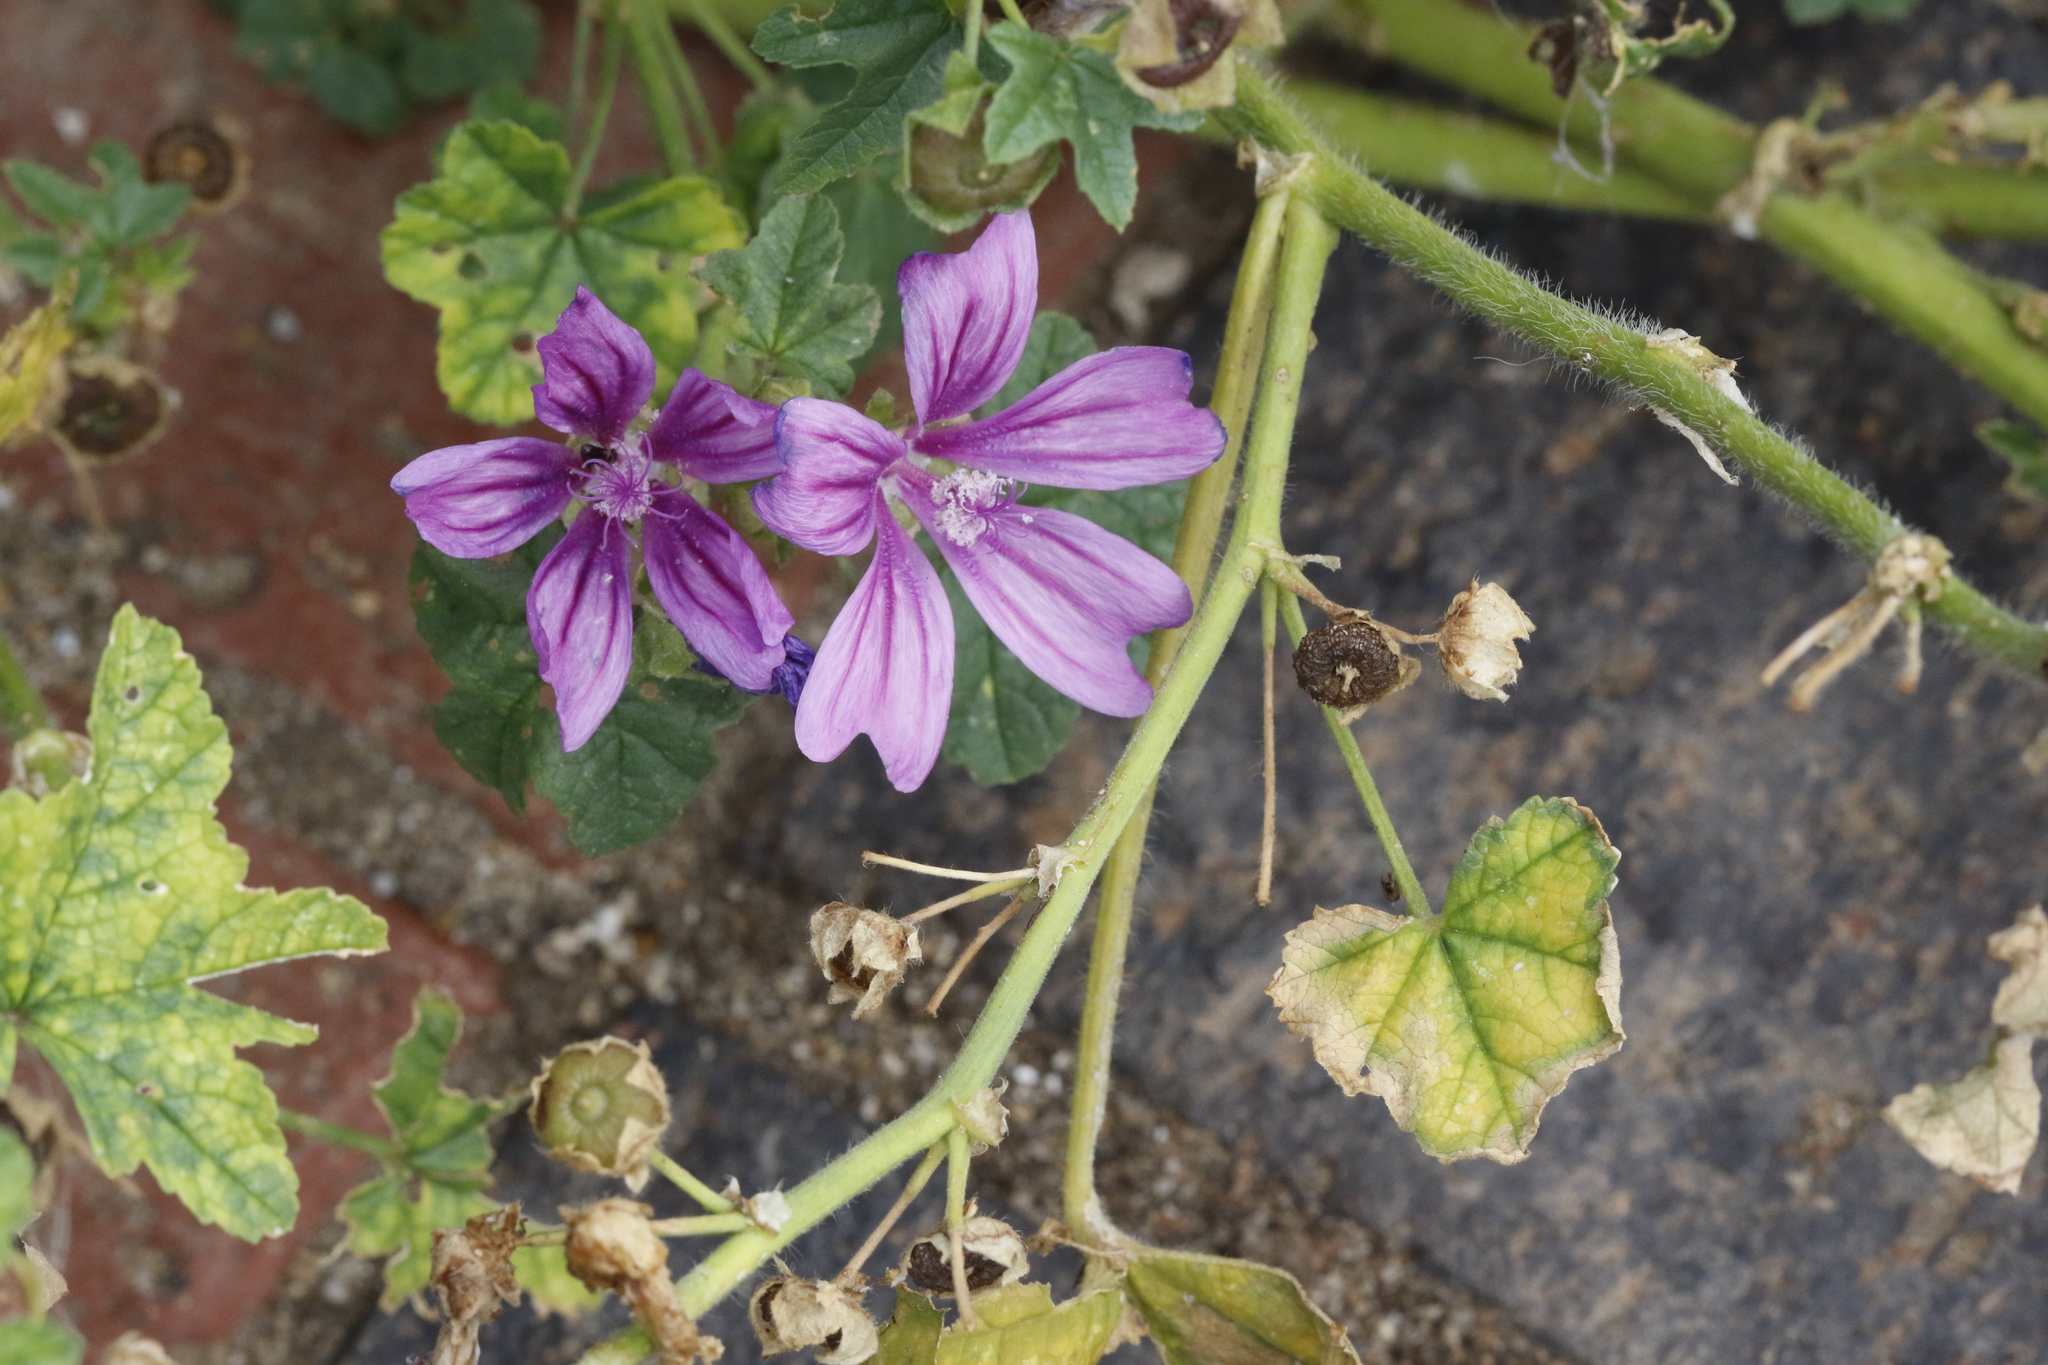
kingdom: Plantae
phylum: Tracheophyta
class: Magnoliopsida
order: Malvales
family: Malvaceae
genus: Malva
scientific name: Malva sylvestris
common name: Common mallow
